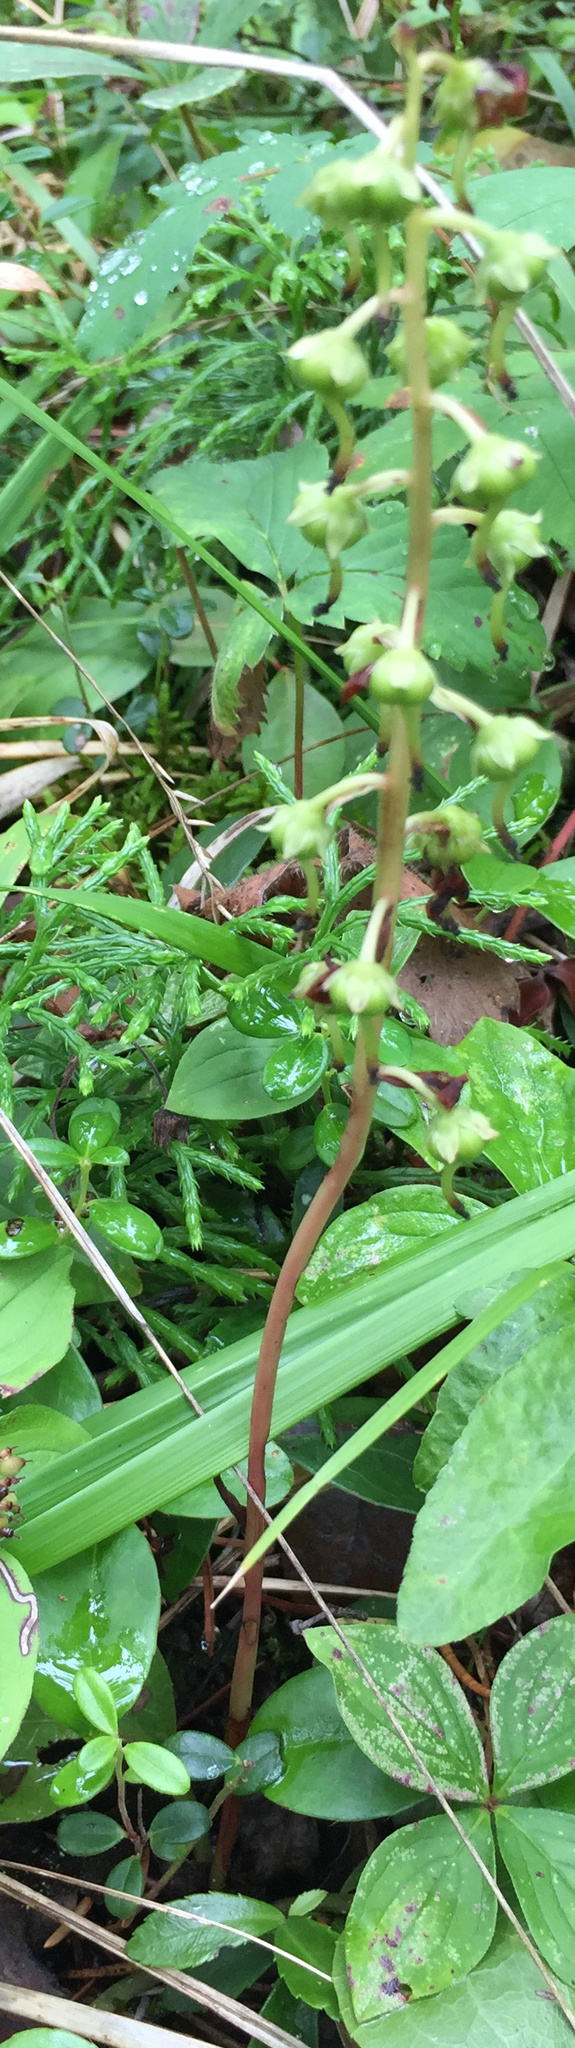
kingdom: Plantae
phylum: Tracheophyta
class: Magnoliopsida
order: Ericales
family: Ericaceae
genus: Pyrola
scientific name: Pyrola americana
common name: American wintergreen
